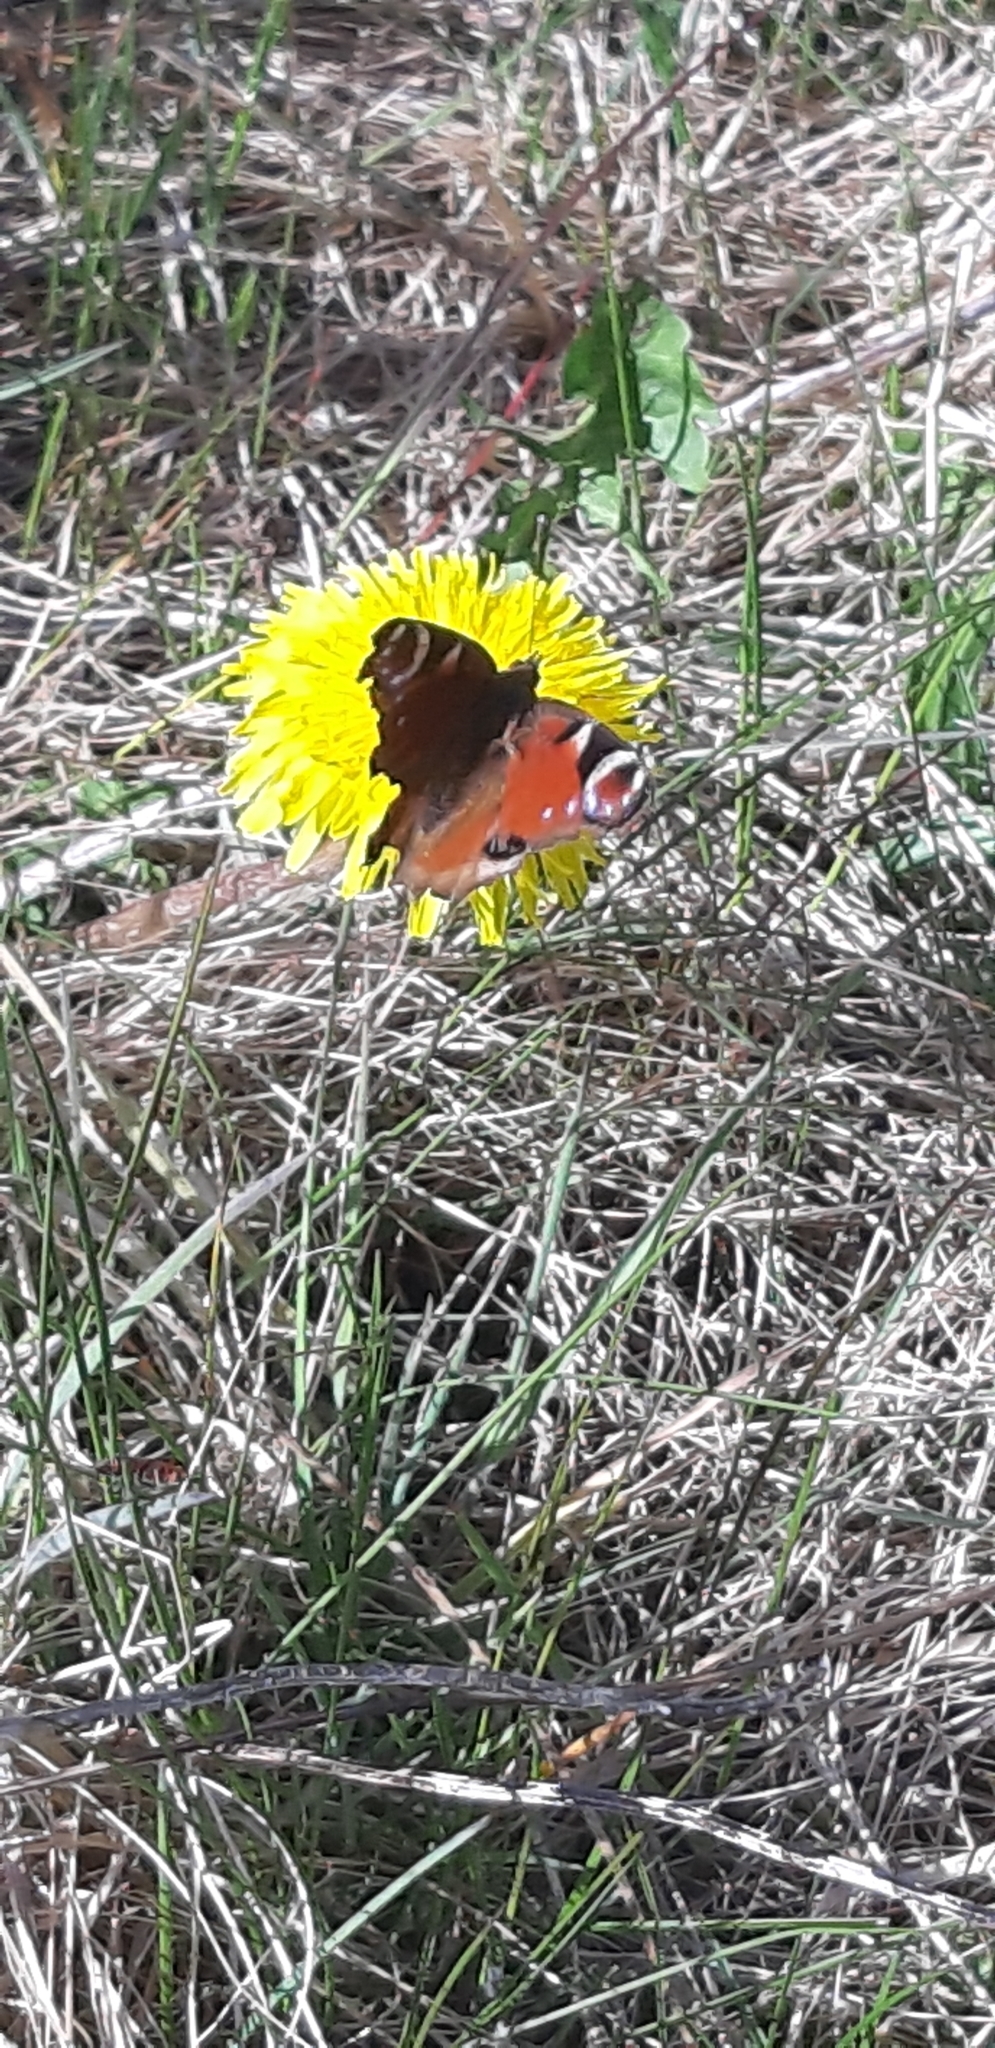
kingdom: Animalia
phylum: Arthropoda
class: Insecta
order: Lepidoptera
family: Nymphalidae
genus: Aglais
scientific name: Aglais io
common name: Peacock
